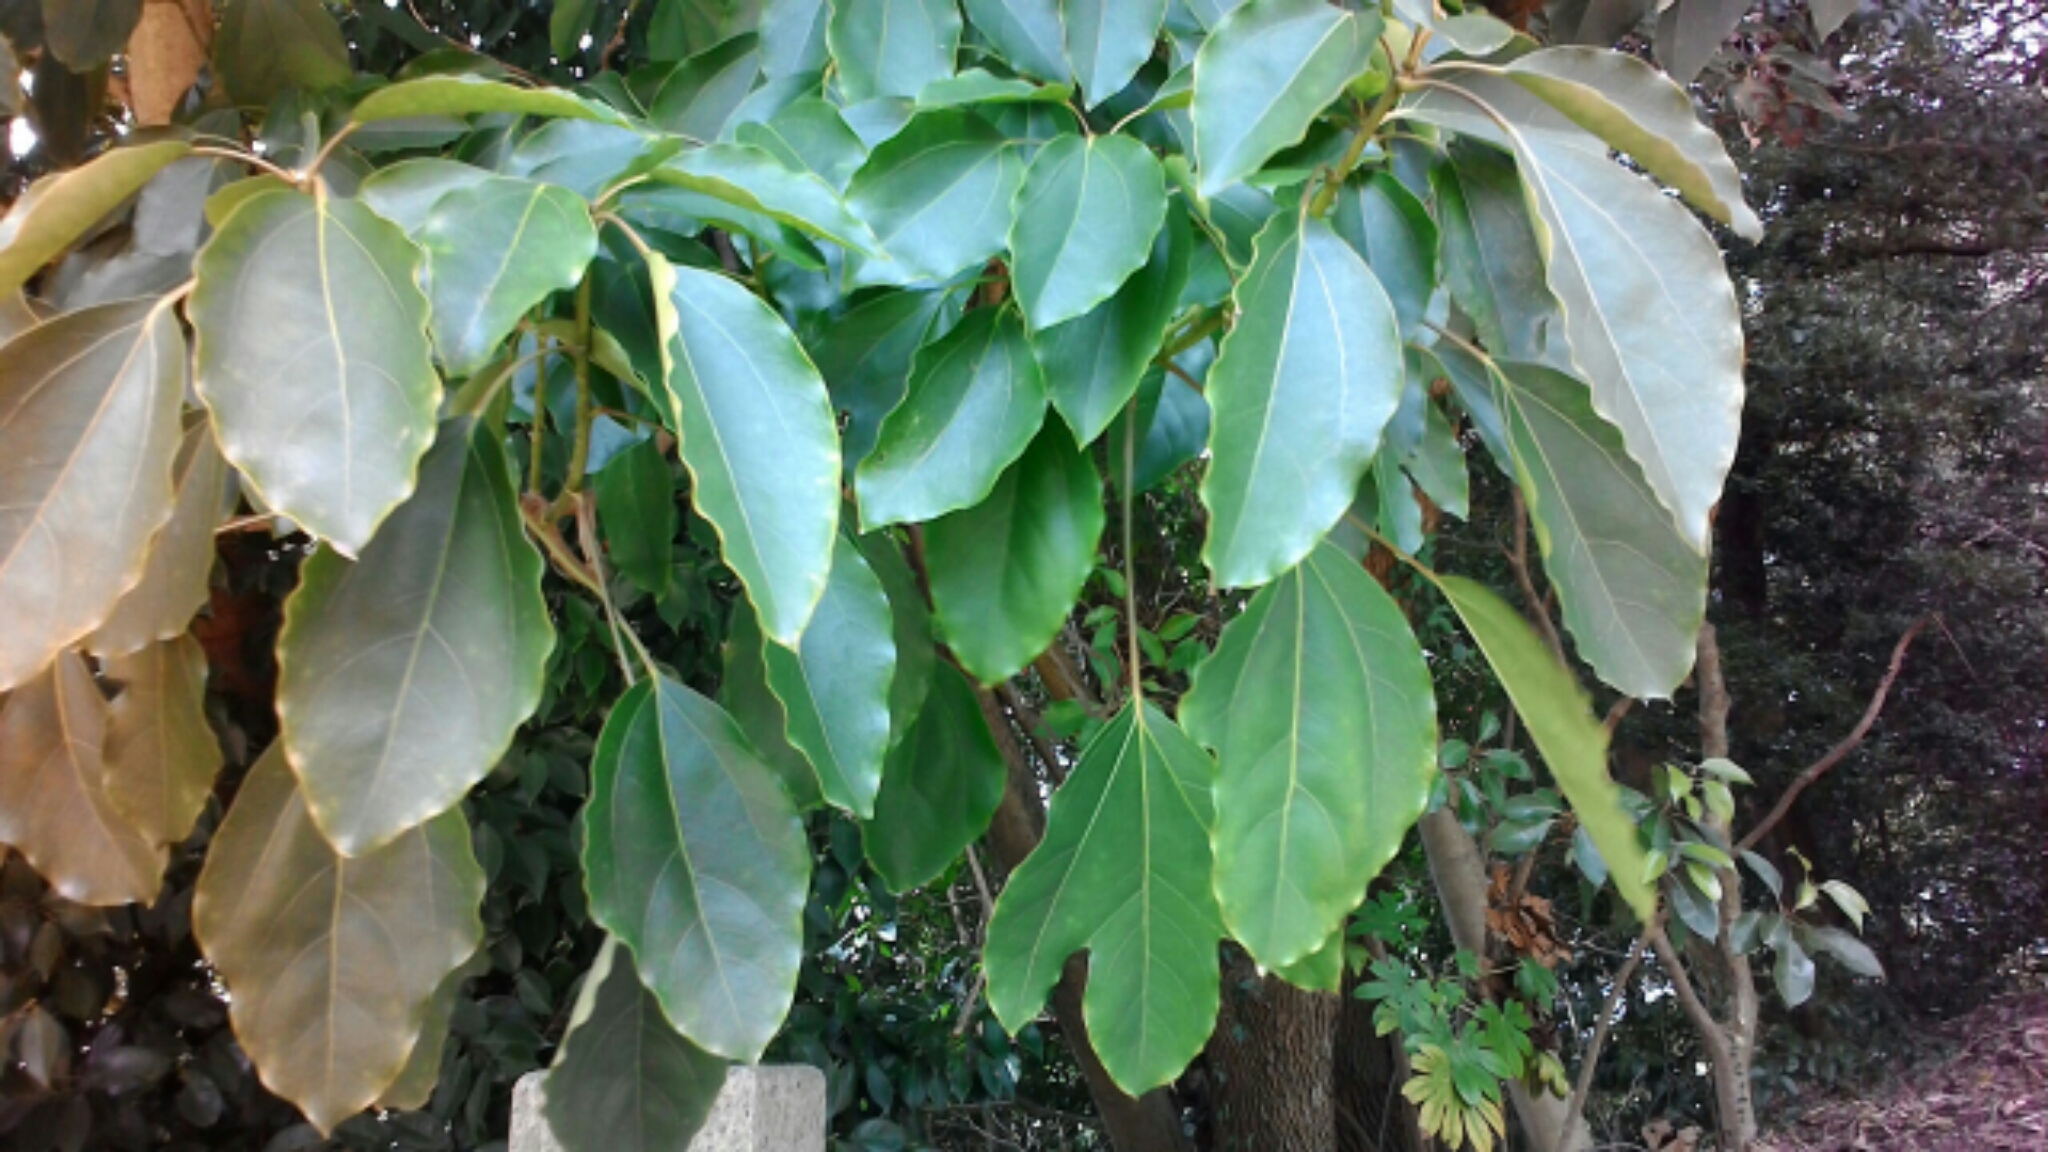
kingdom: Plantae
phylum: Tracheophyta
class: Magnoliopsida
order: Apiales
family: Araliaceae
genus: Dendropanax
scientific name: Dendropanax trifidus
